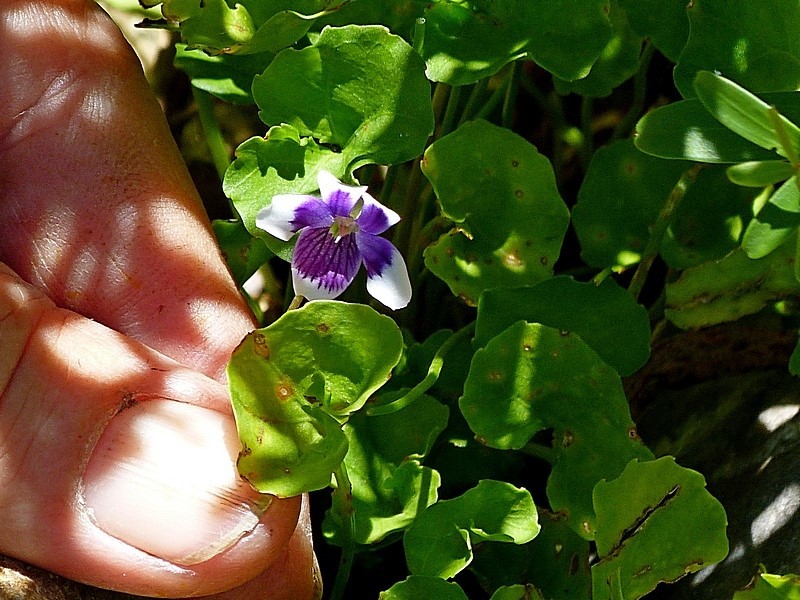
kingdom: Plantae
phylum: Tracheophyta
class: Magnoliopsida
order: Malpighiales
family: Violaceae
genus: Viola
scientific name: Viola banksii
